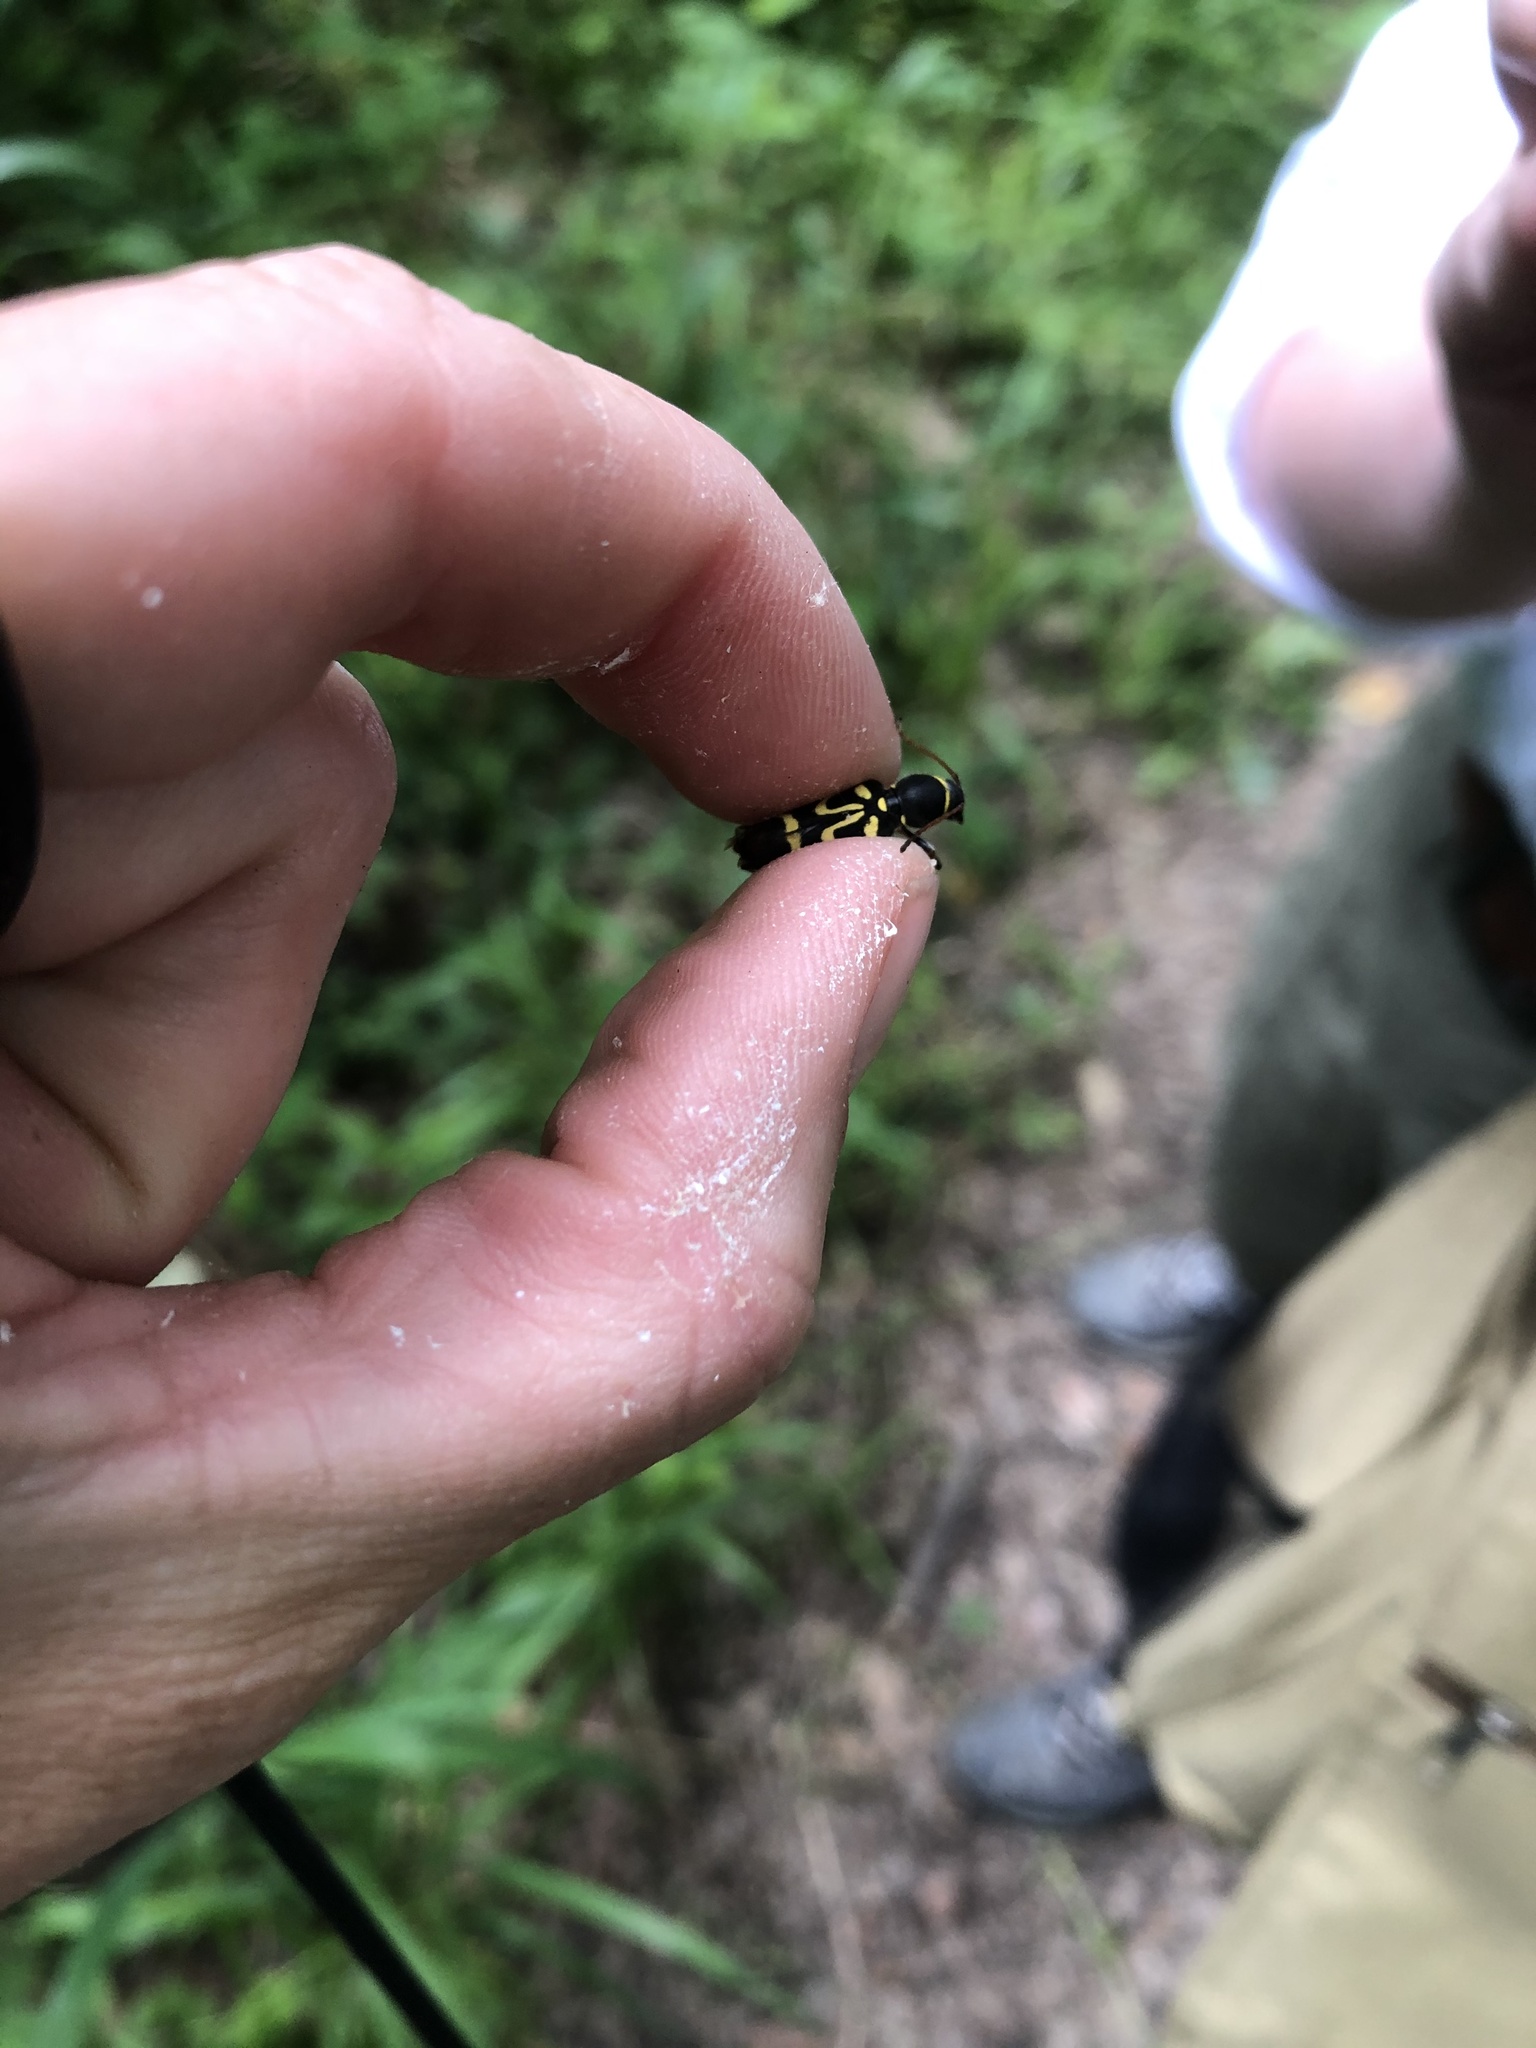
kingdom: Animalia
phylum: Arthropoda
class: Insecta
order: Coleoptera
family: Cerambycidae
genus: Clytus
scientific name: Clytus ruricola
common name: Round-necked longhorn beetle
